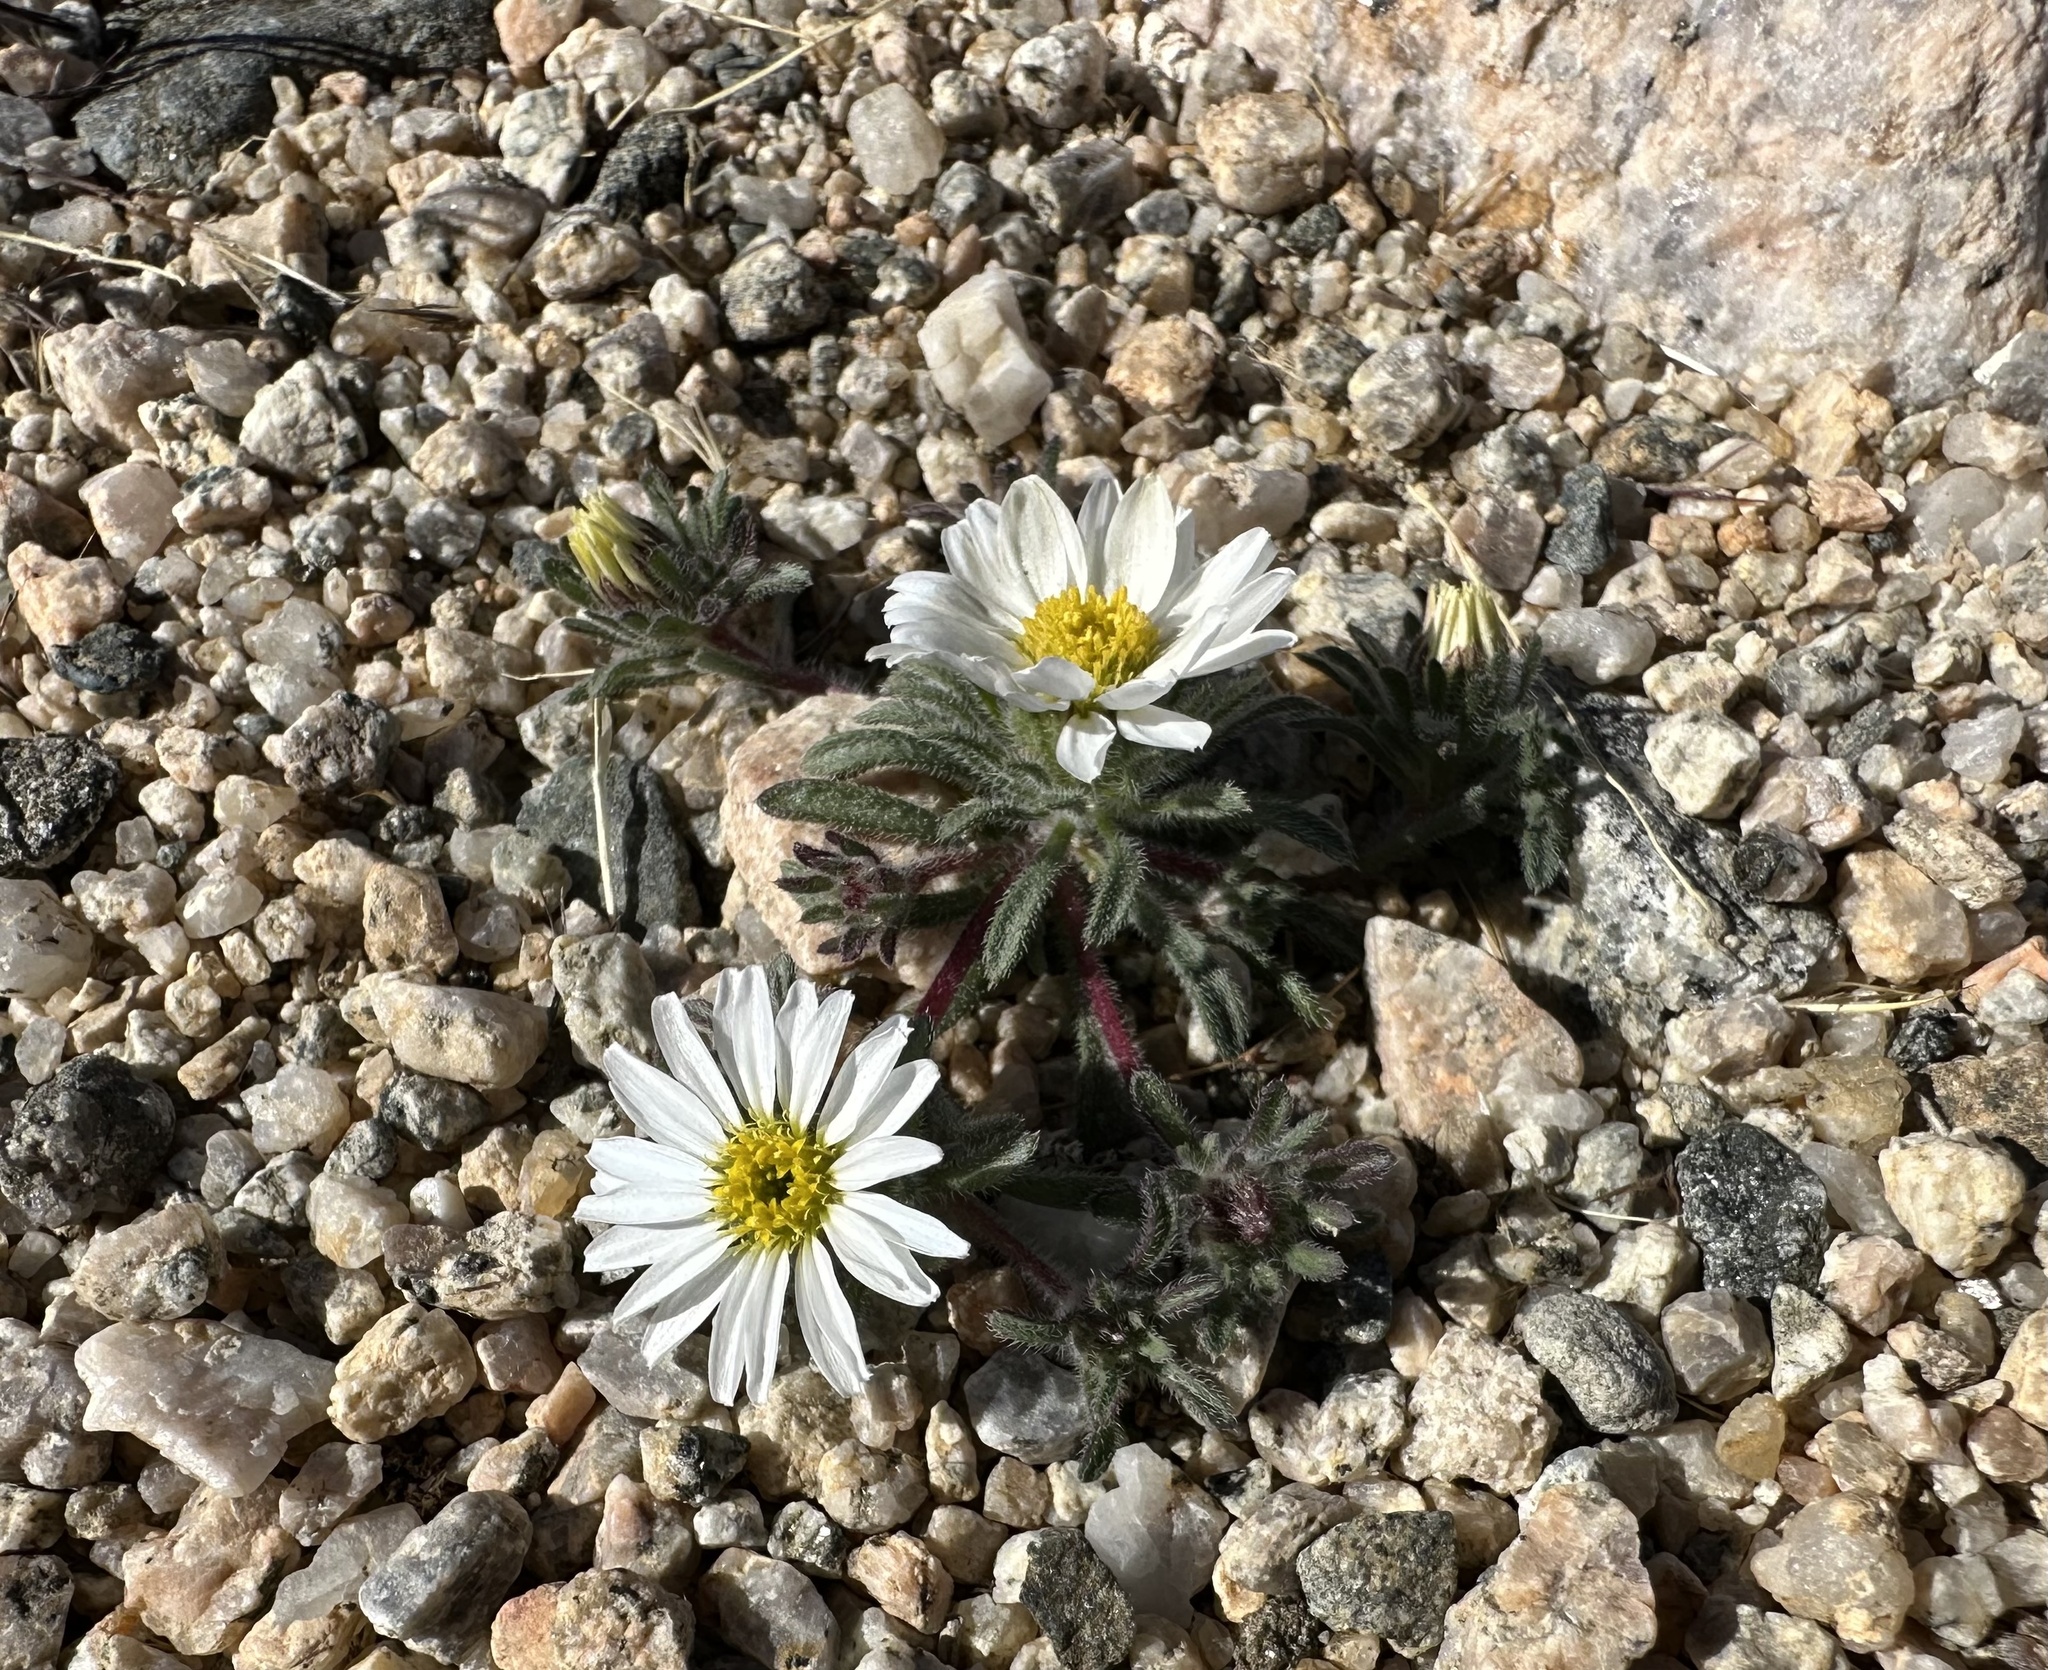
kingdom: Plantae
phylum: Tracheophyta
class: Magnoliopsida
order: Asterales
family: Asteraceae
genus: Monoptilon
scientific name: Monoptilon bellioides
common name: Bristly desertstar
